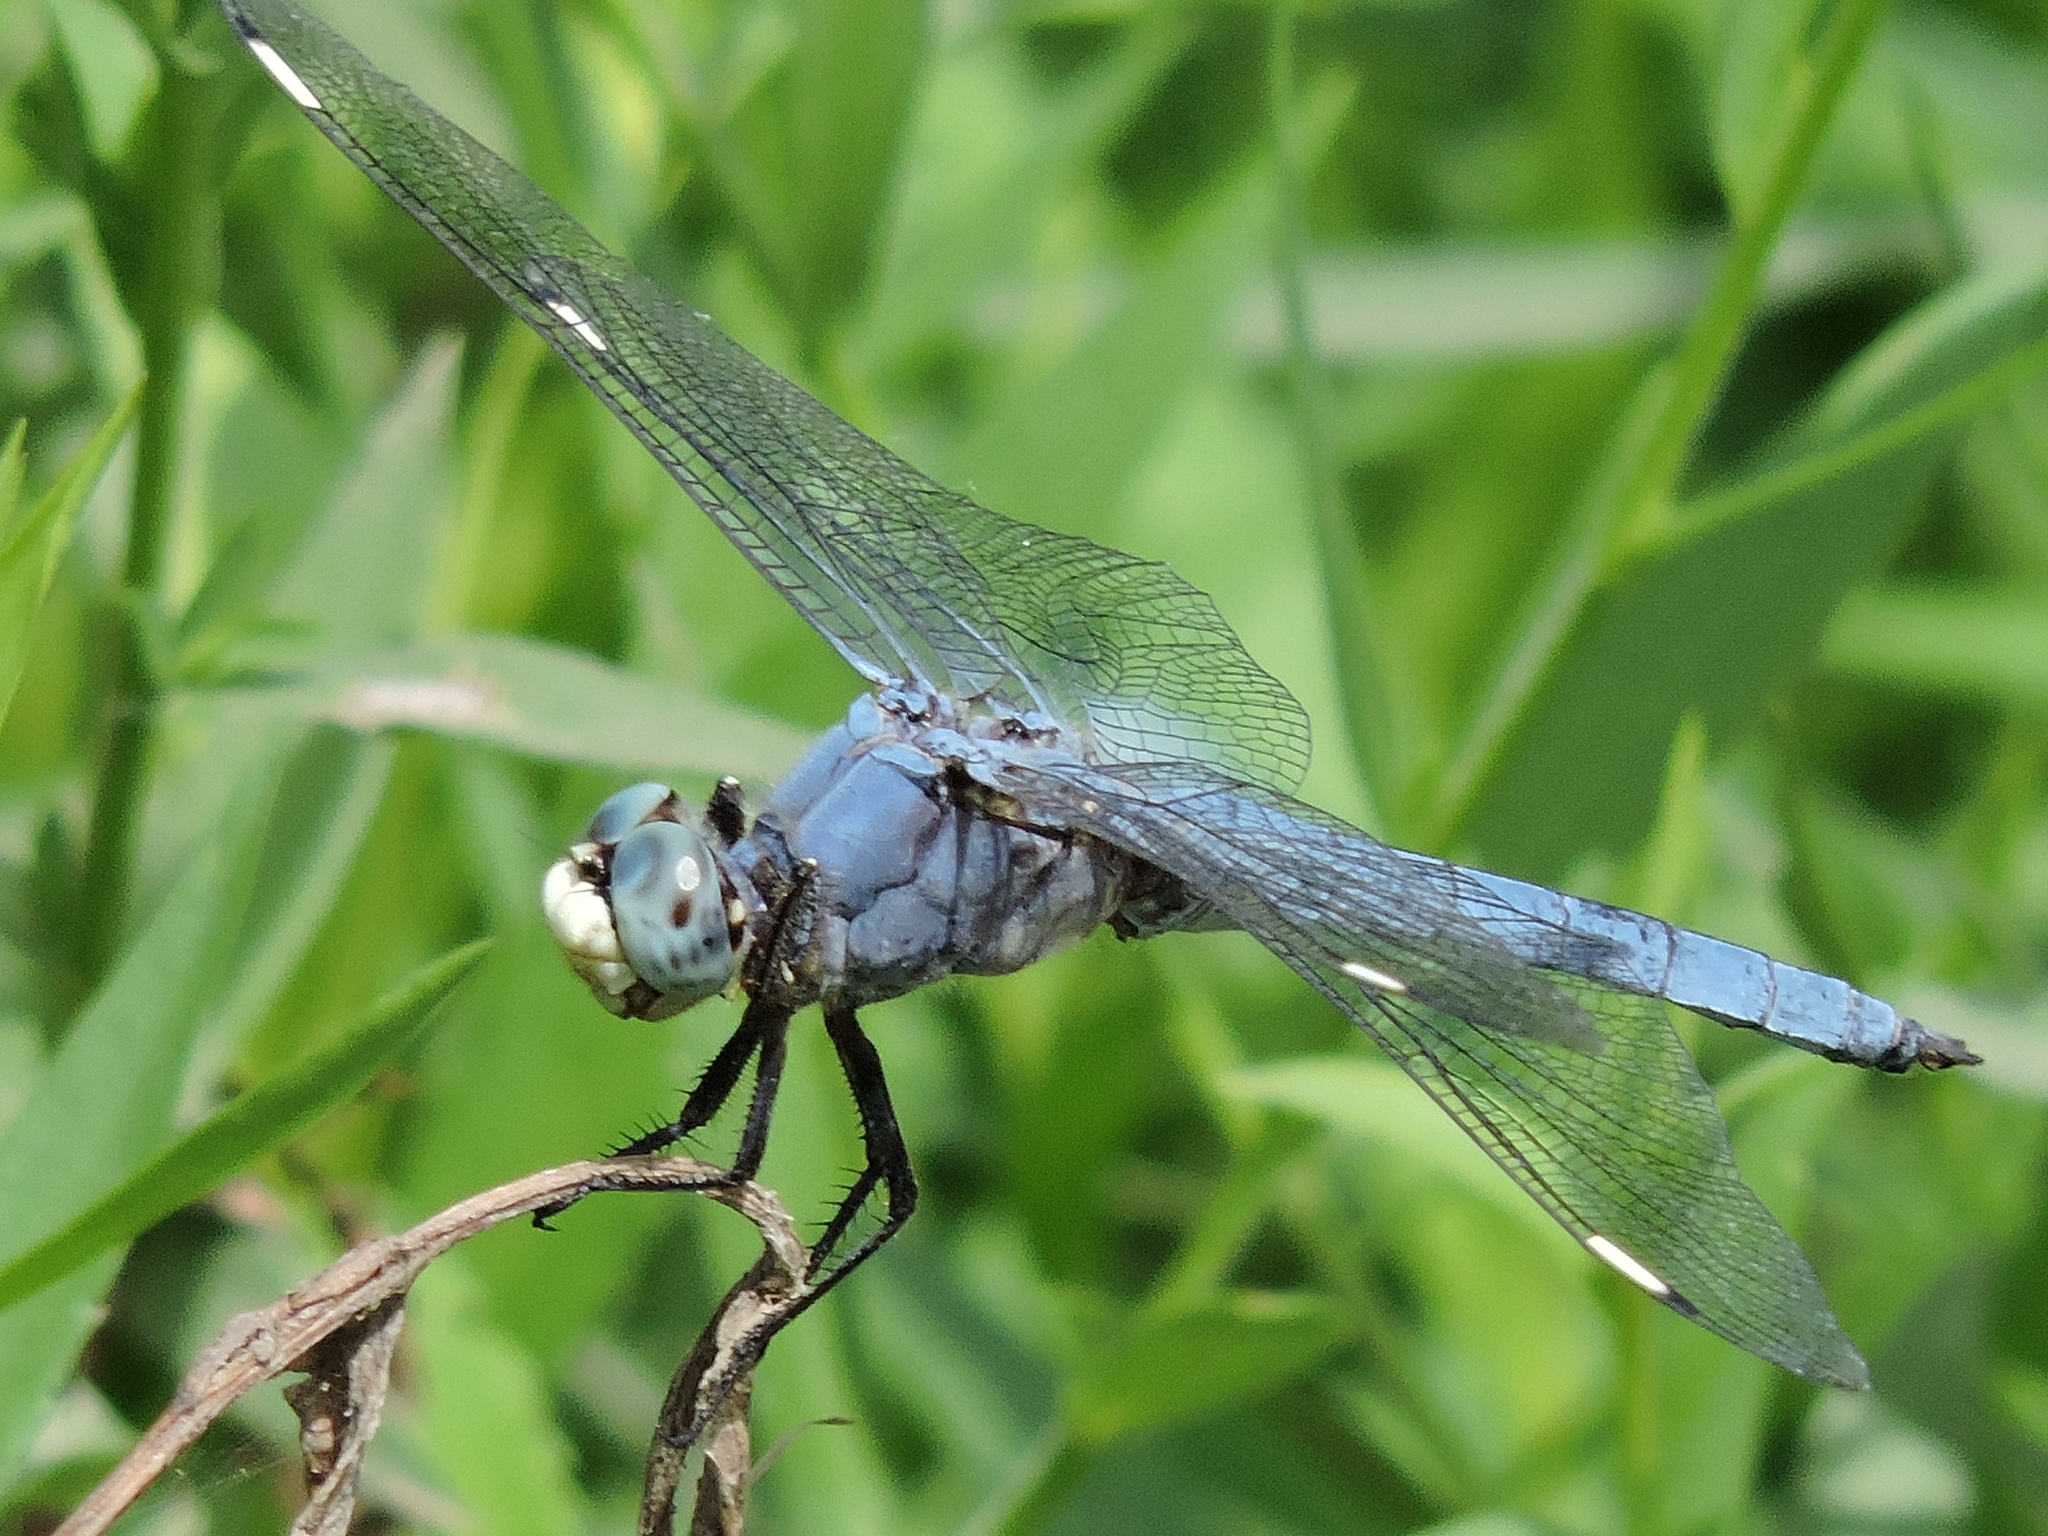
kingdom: Animalia
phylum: Arthropoda
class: Insecta
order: Odonata
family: Libellulidae
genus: Libellula
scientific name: Libellula comanche
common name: Comanche skimmer
